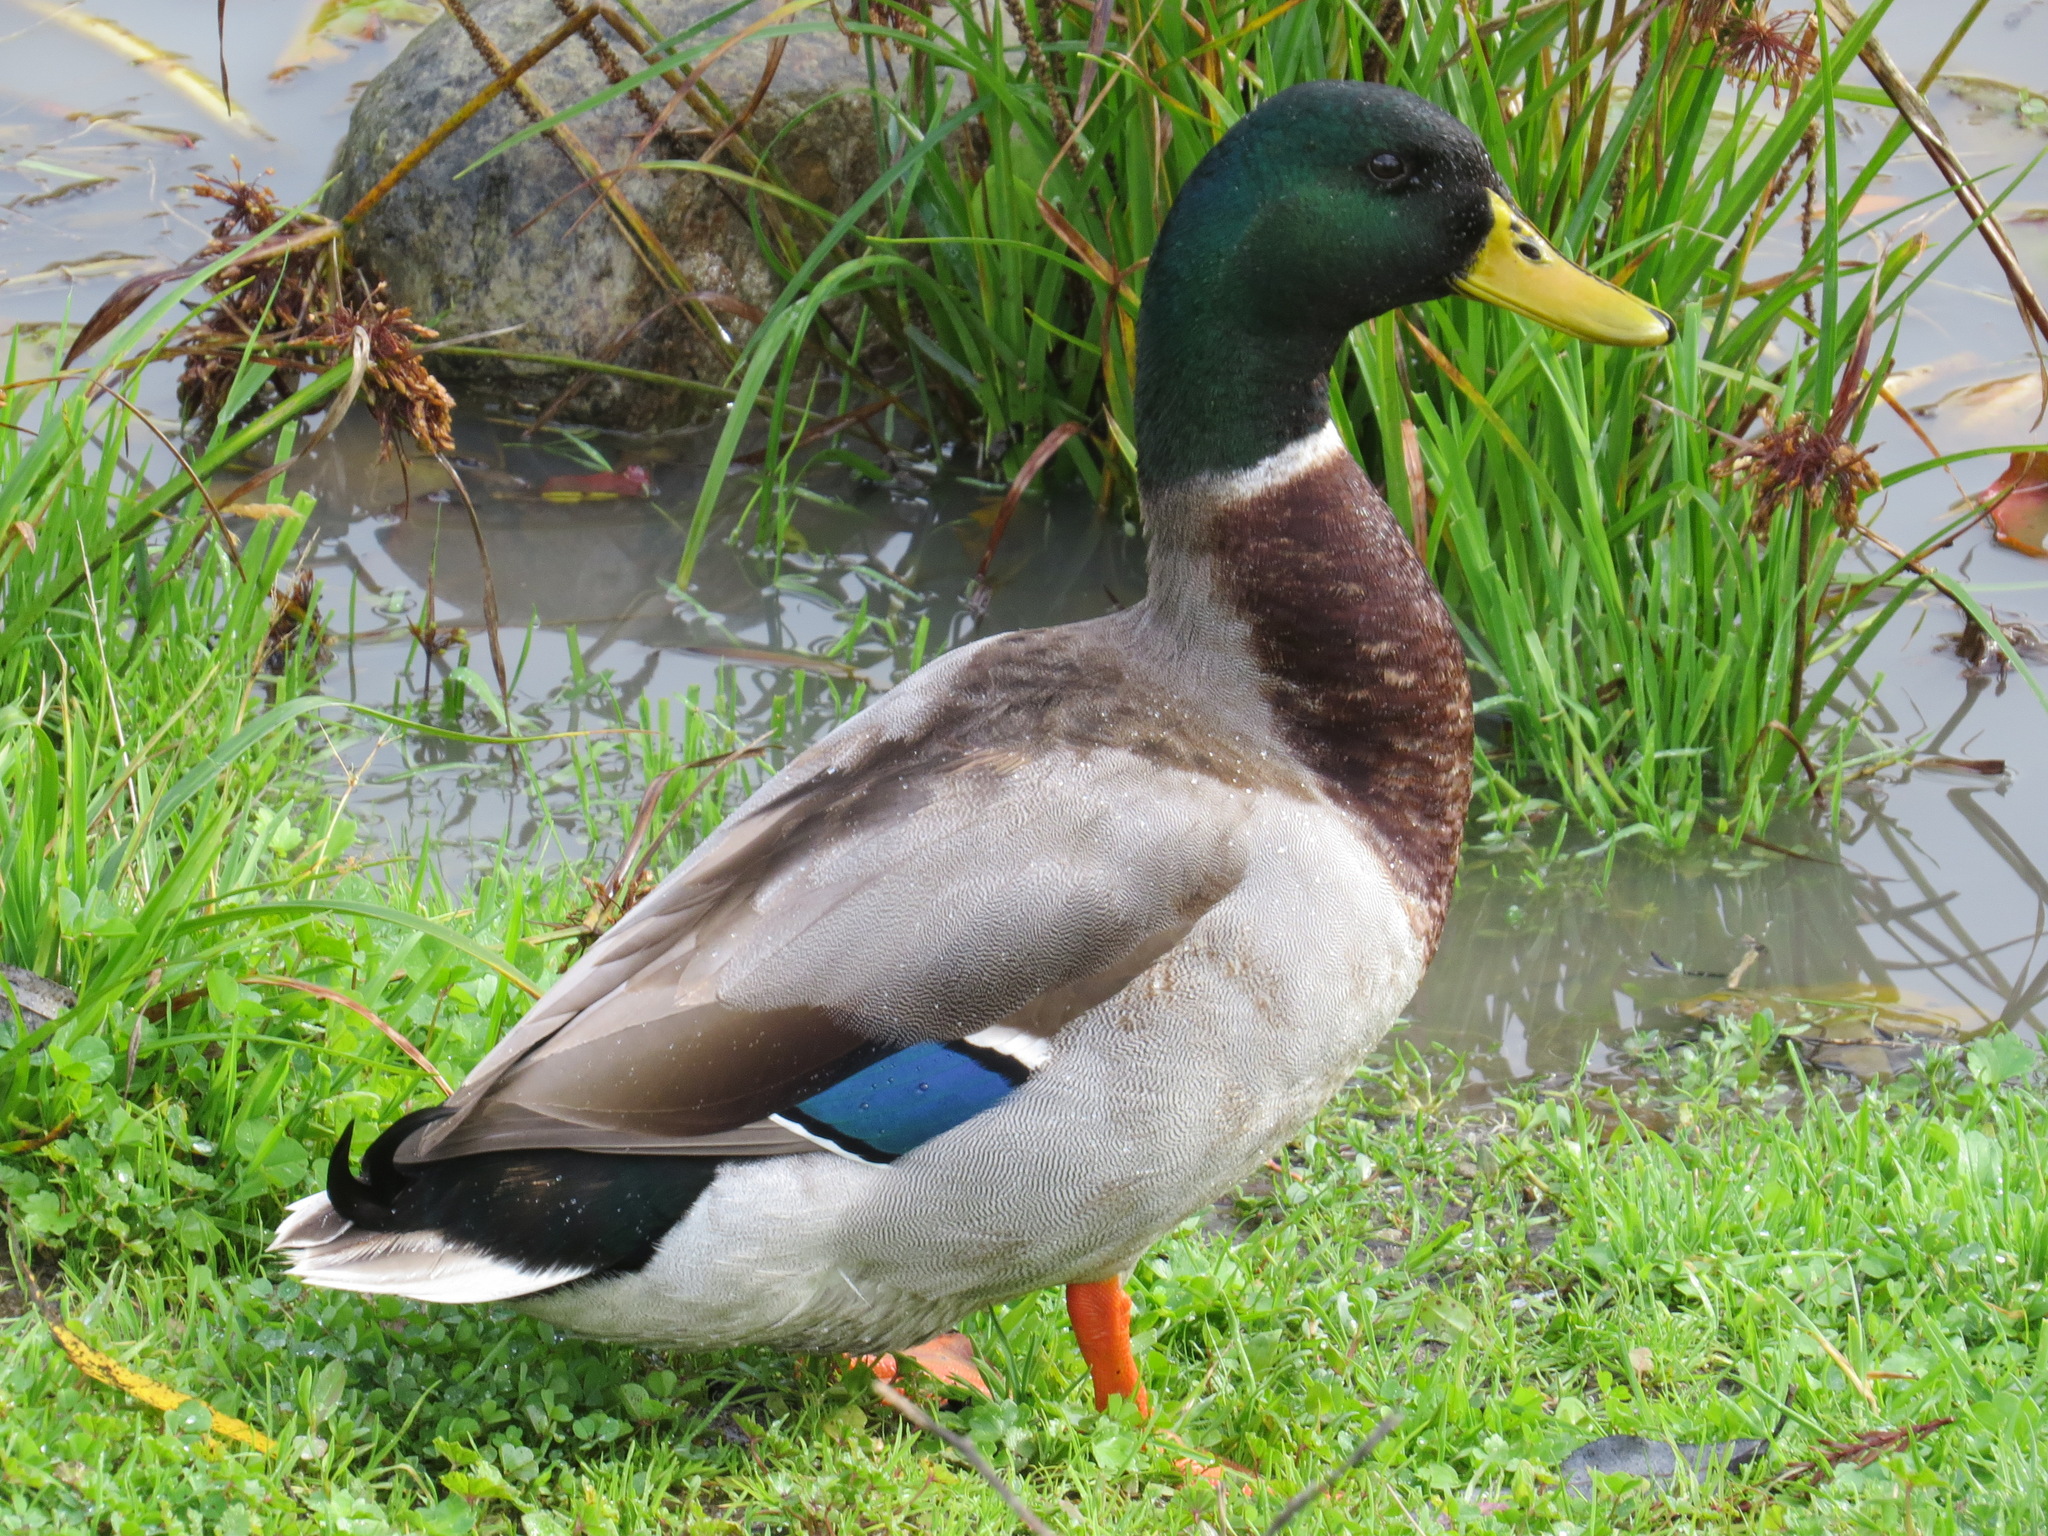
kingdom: Animalia
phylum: Chordata
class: Aves
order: Anseriformes
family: Anatidae
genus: Anas
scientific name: Anas platyrhynchos
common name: Mallard
